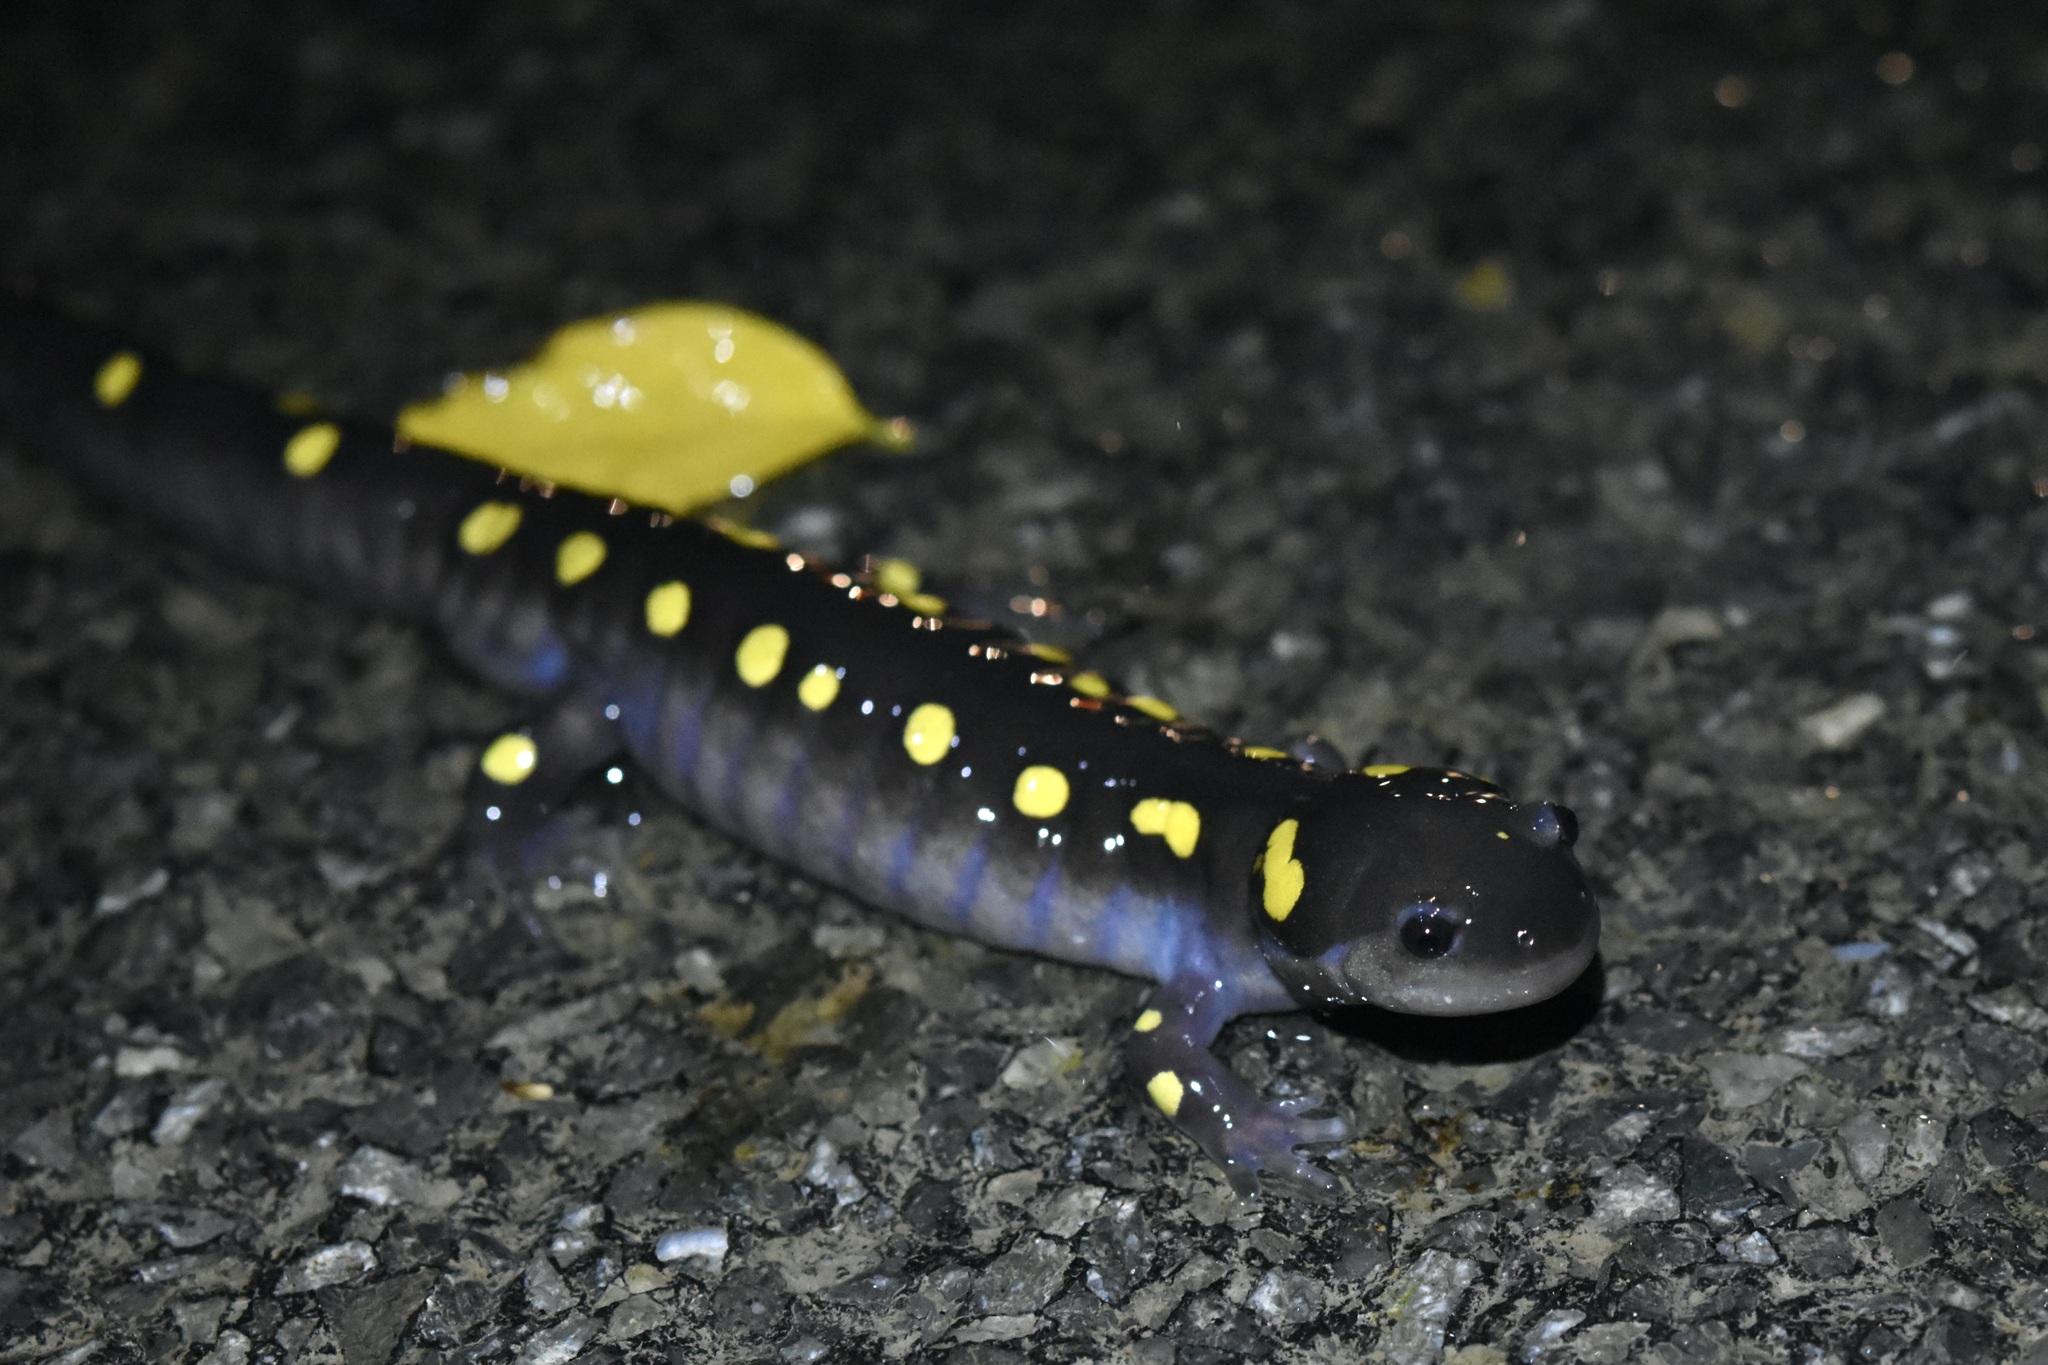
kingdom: Animalia
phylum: Chordata
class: Amphibia
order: Caudata
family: Ambystomatidae
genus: Ambystoma
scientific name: Ambystoma maculatum
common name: Spotted salamander
